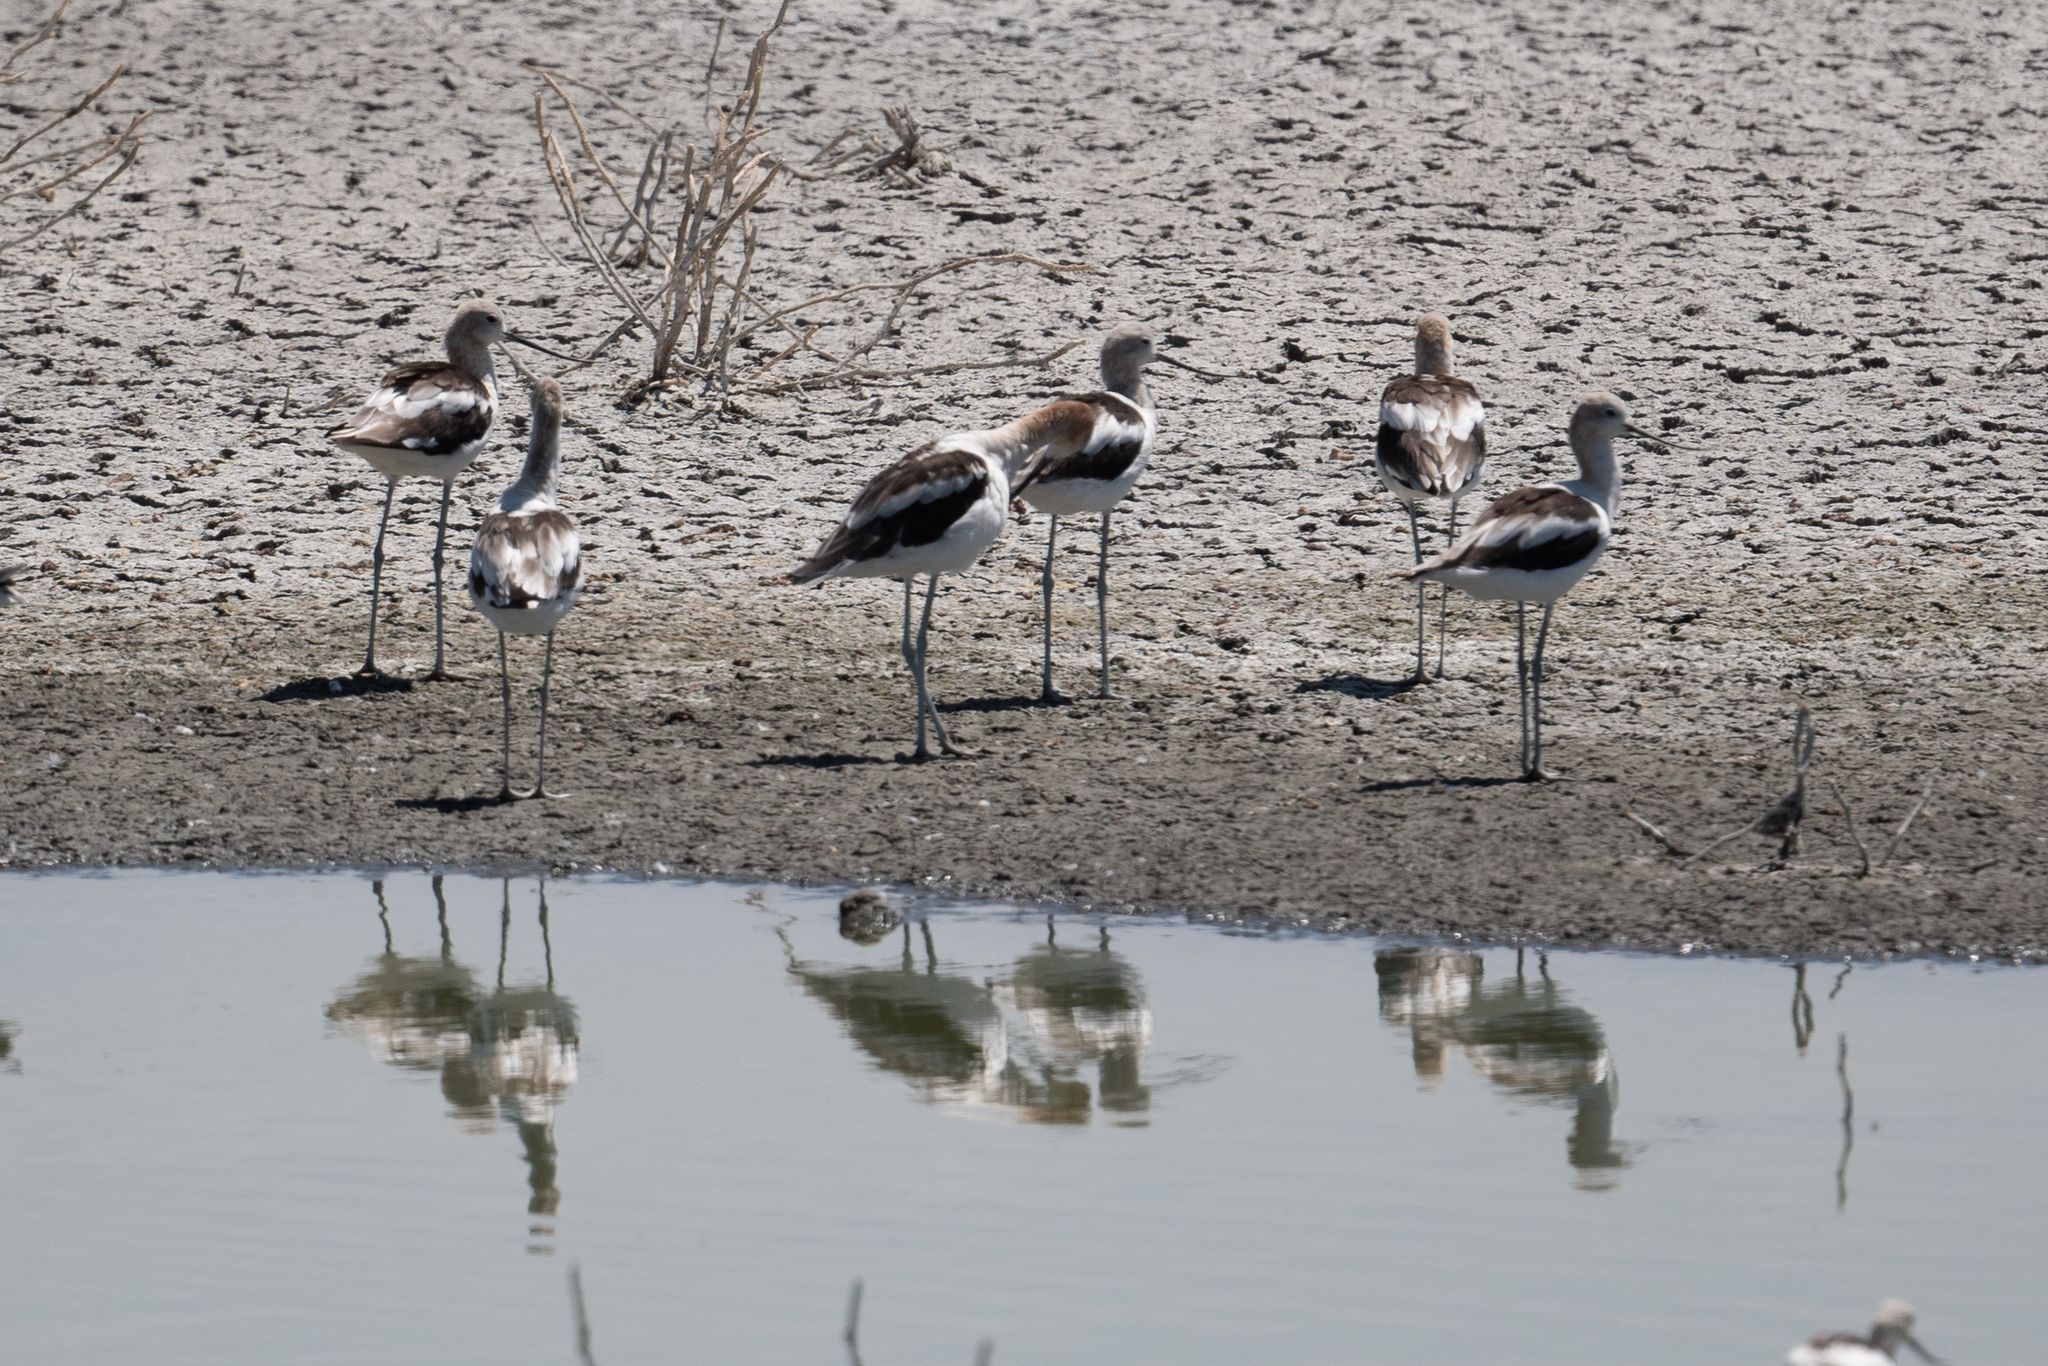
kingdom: Animalia
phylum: Chordata
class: Aves
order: Charadriiformes
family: Recurvirostridae
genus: Recurvirostra
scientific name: Recurvirostra americana
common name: American avocet
